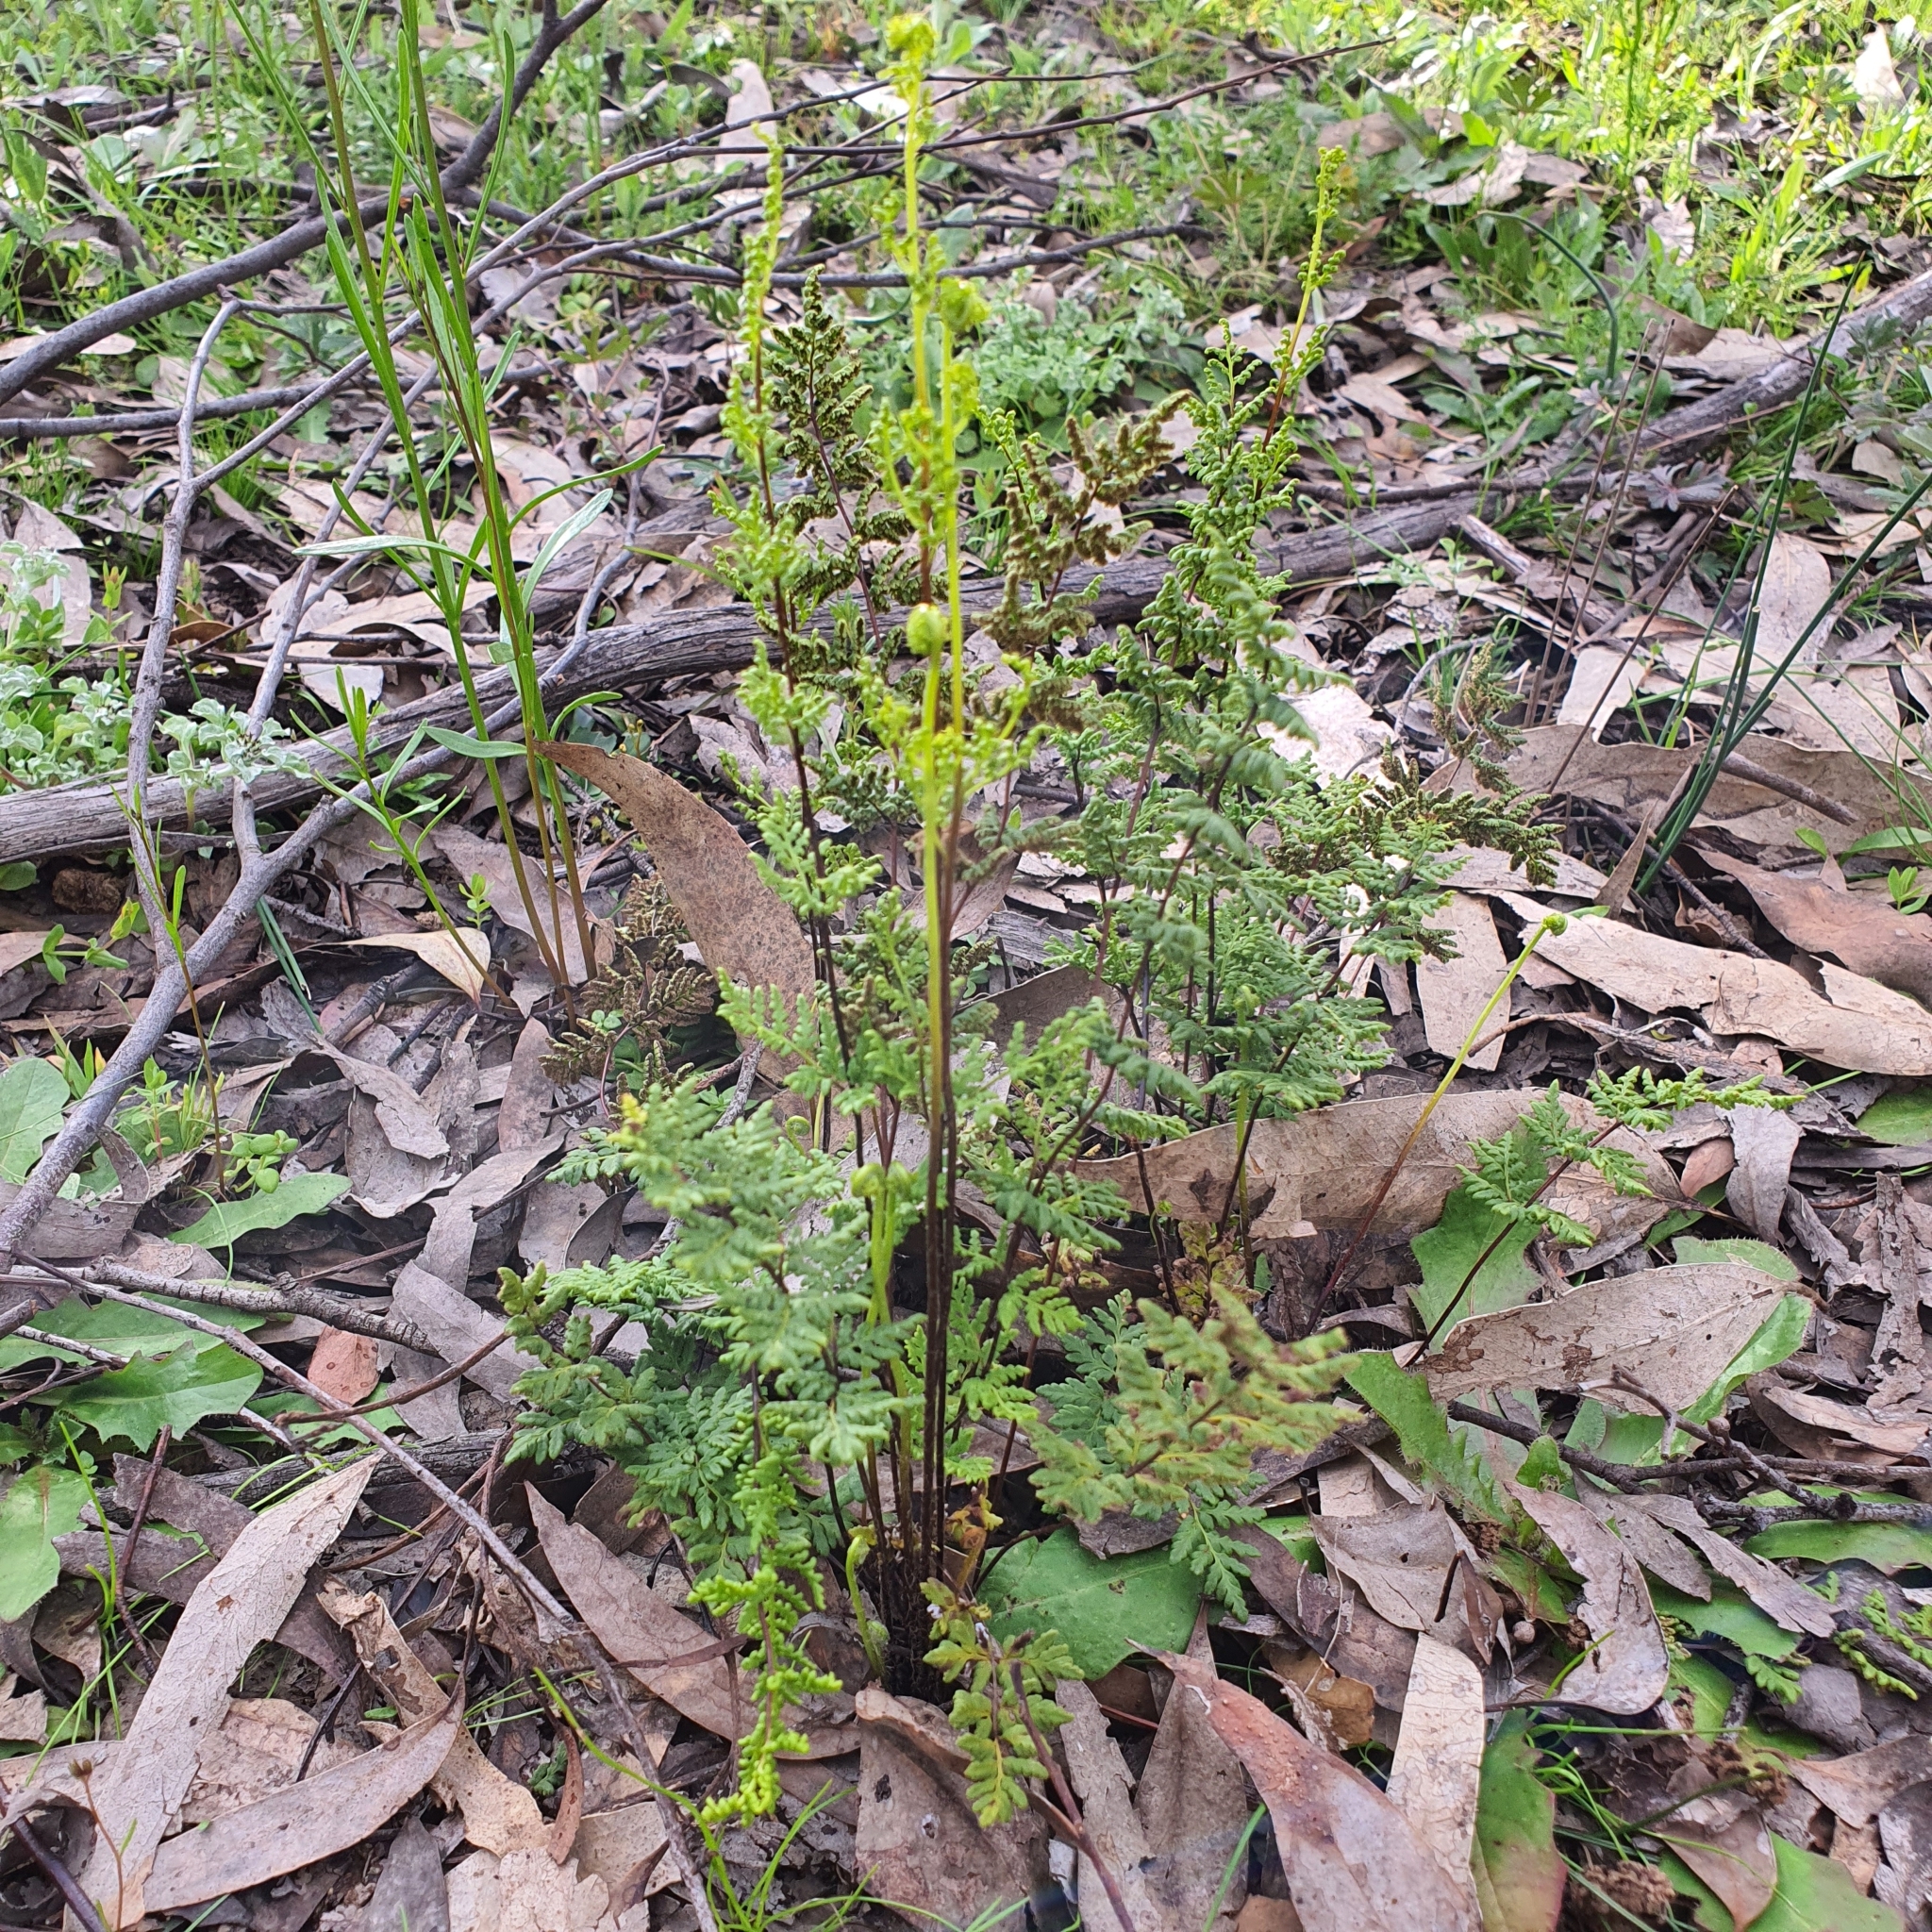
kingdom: Plantae
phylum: Tracheophyta
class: Polypodiopsida
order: Polypodiales
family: Pteridaceae
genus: Cheilanthes
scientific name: Cheilanthes sieberi
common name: Mulga fern
